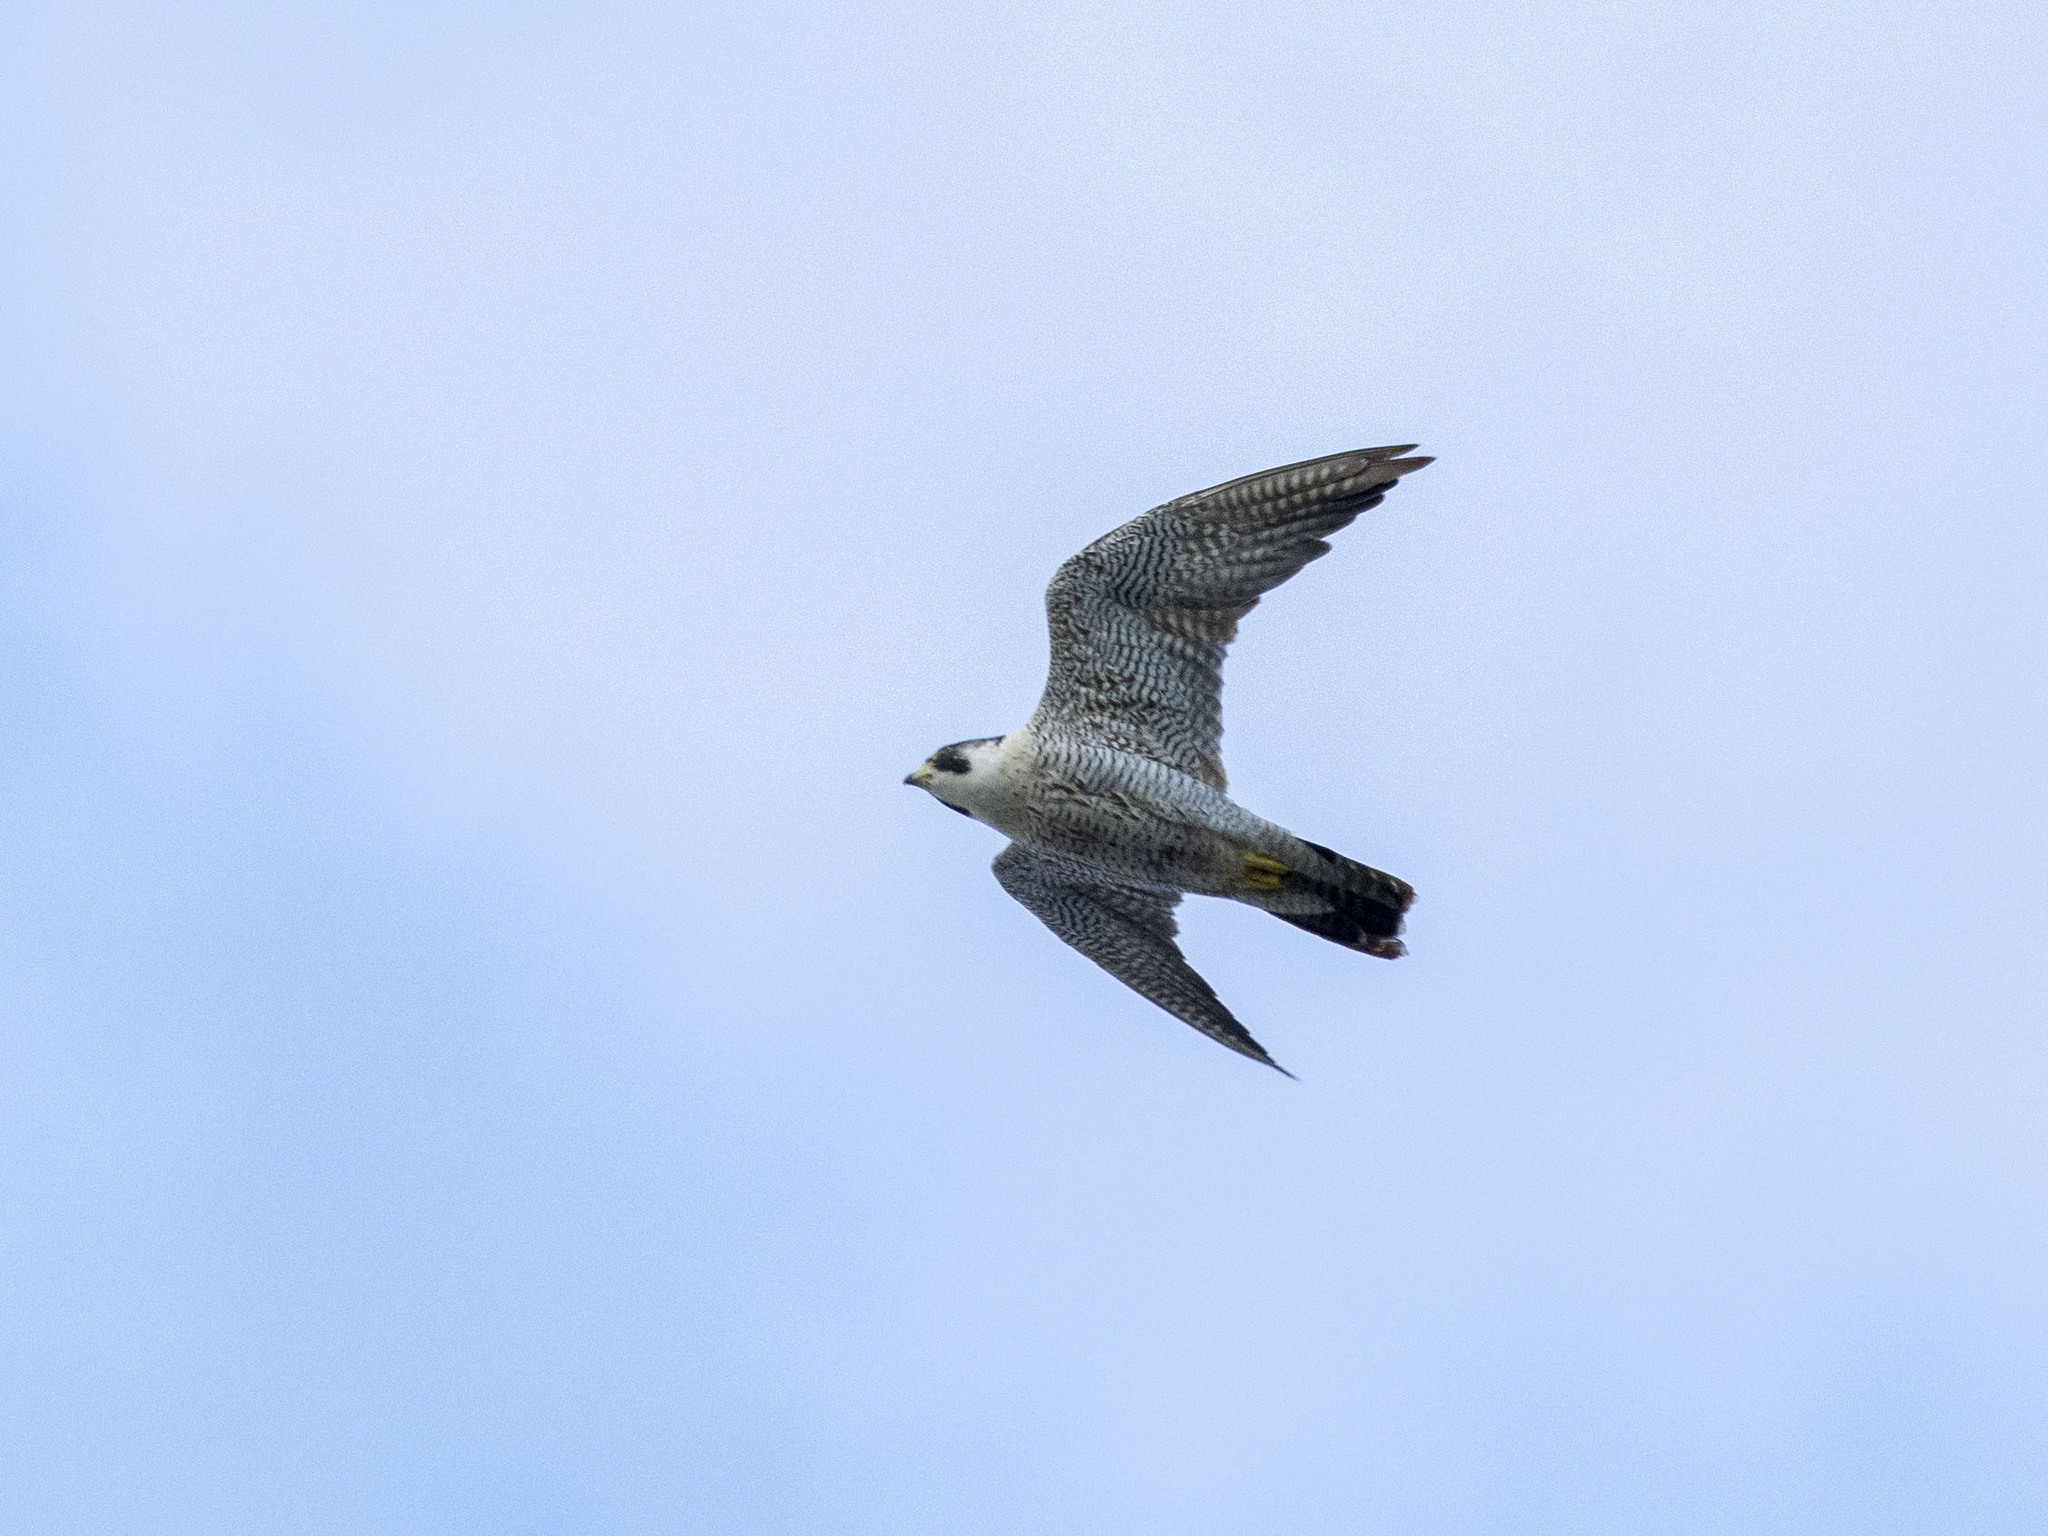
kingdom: Animalia
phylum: Chordata
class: Aves
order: Falconiformes
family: Falconidae
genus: Falco
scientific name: Falco peregrinus
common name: Peregrine falcon
